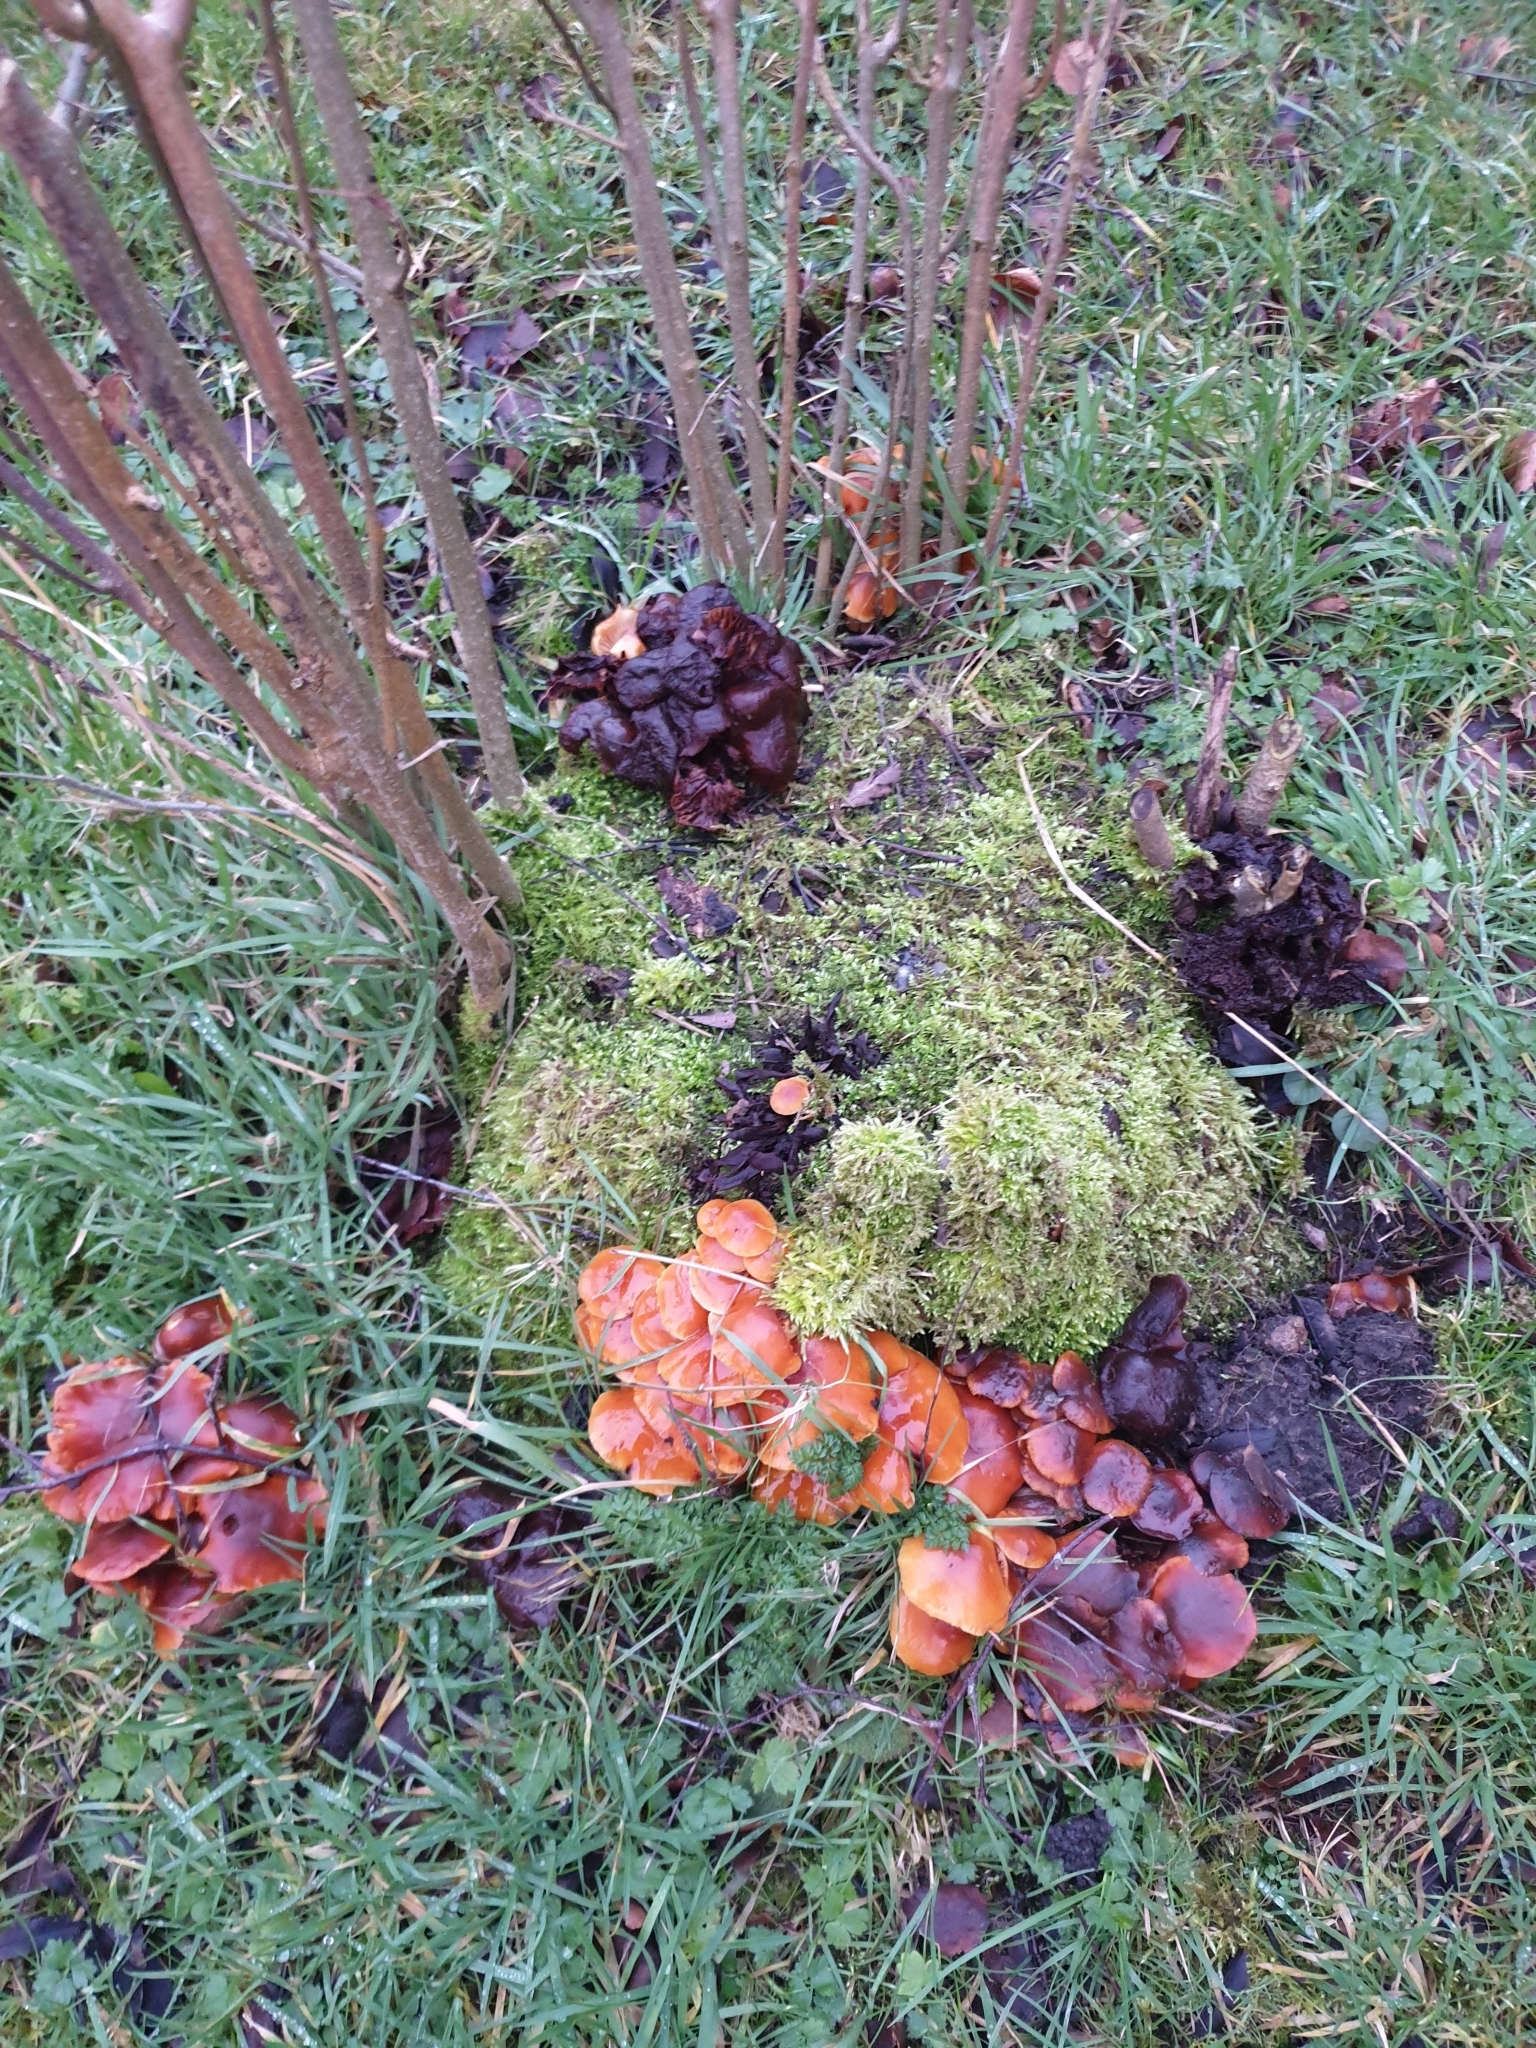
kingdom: Fungi
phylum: Basidiomycota
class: Agaricomycetes
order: Agaricales
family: Physalacriaceae
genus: Flammulina
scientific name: Flammulina
